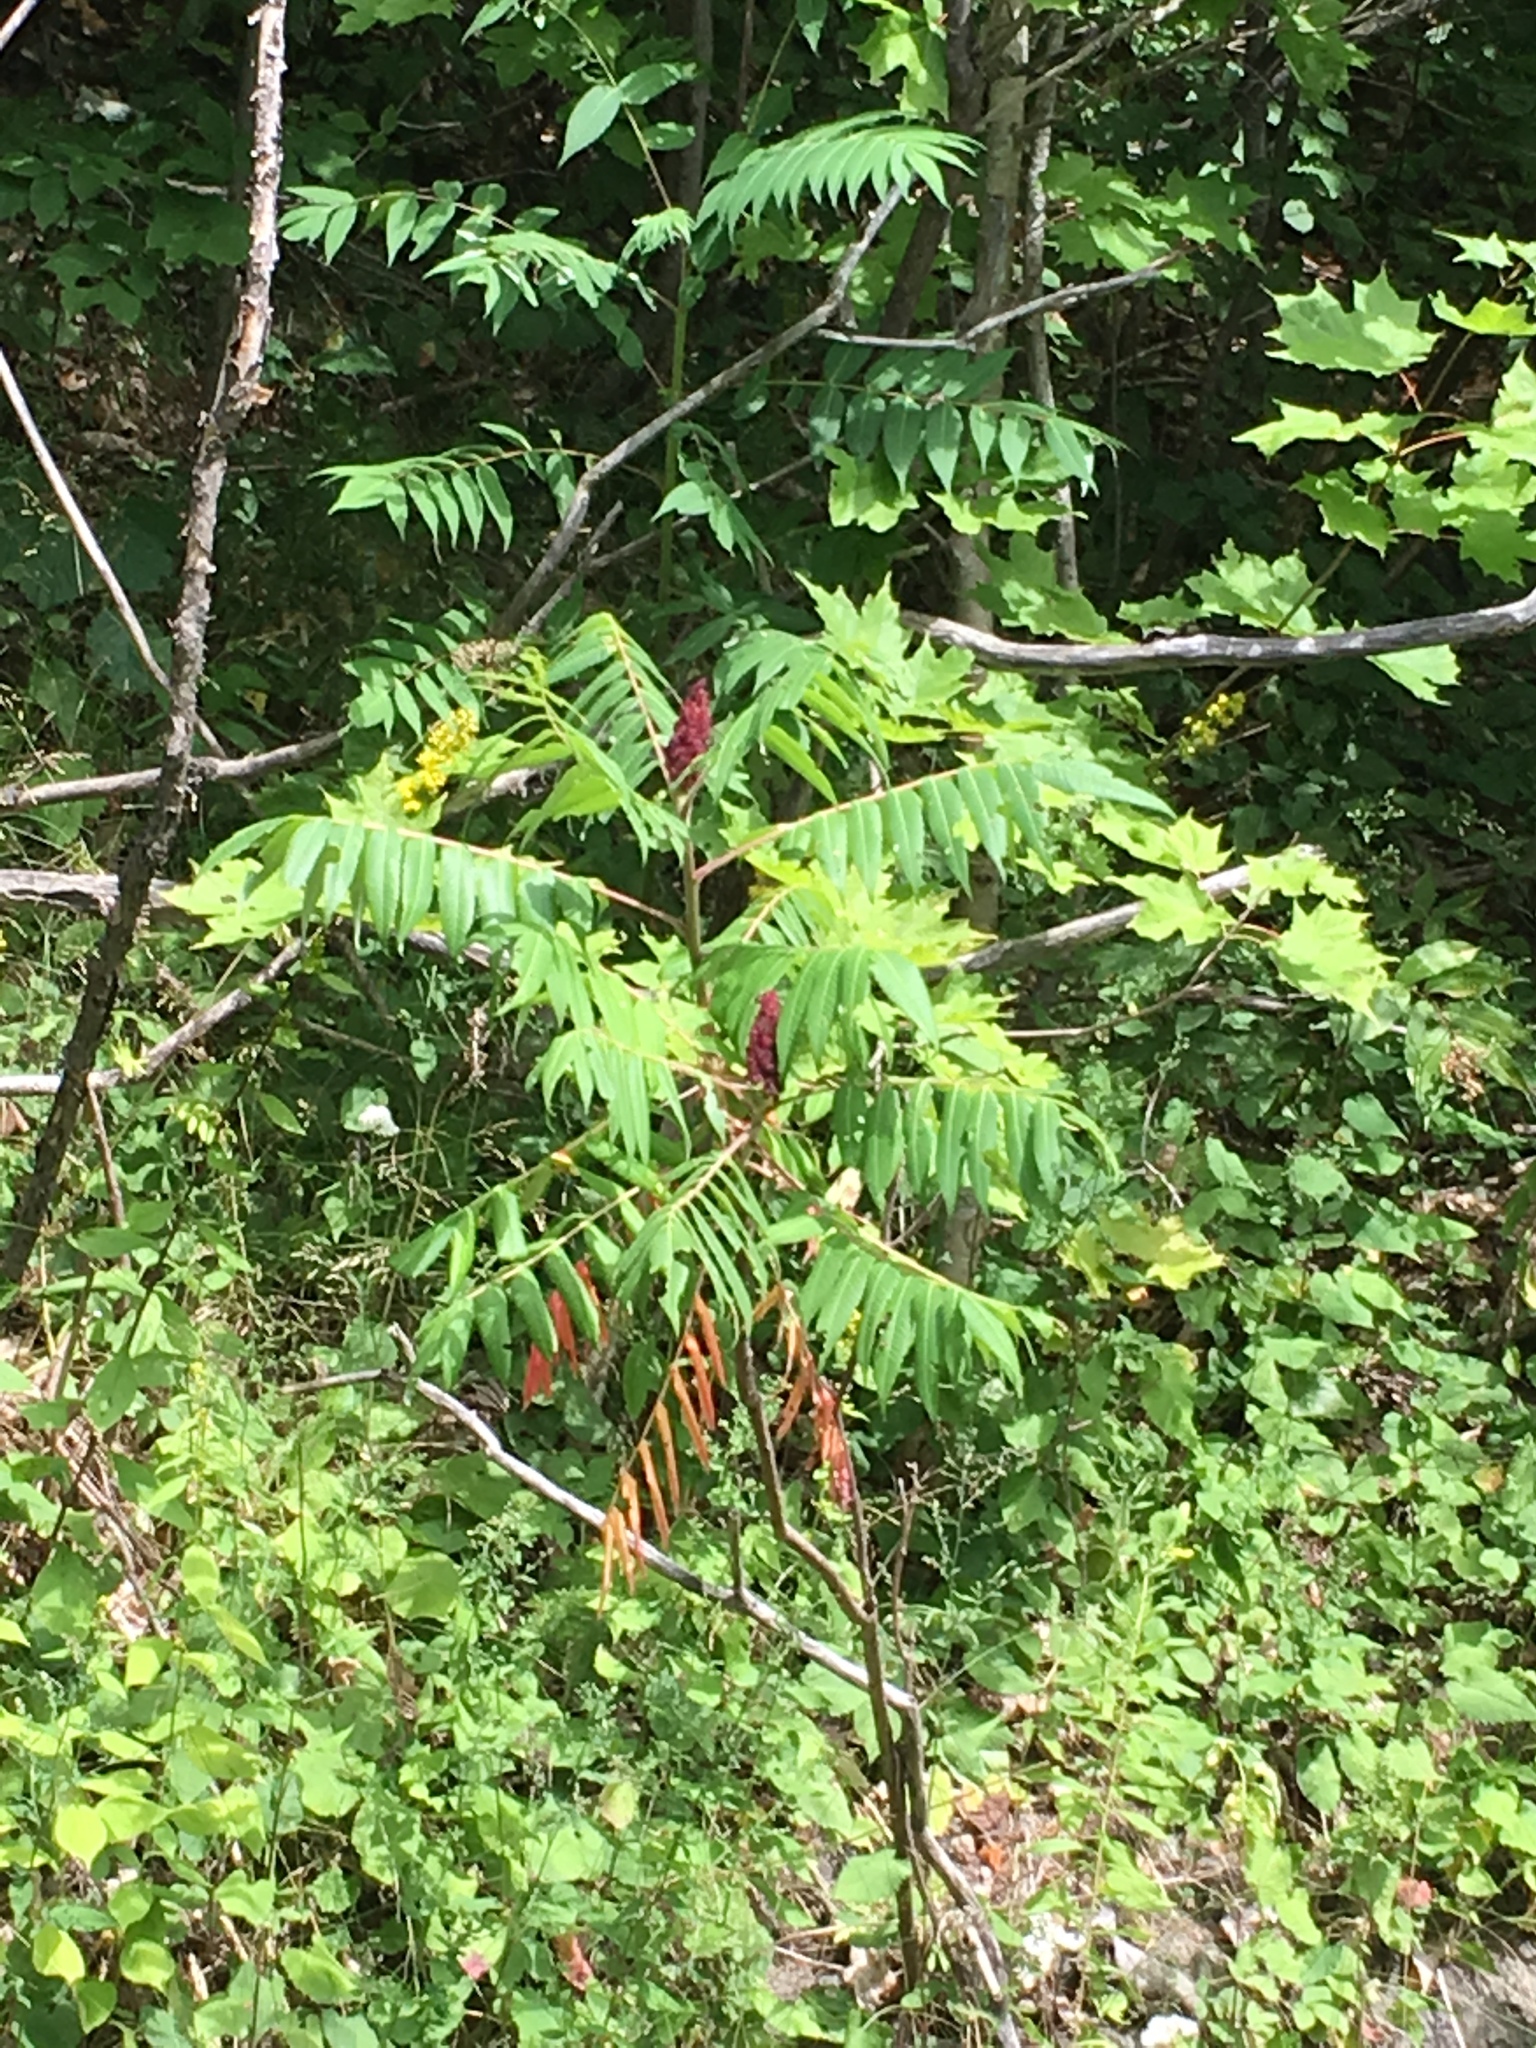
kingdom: Plantae
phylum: Tracheophyta
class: Magnoliopsida
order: Sapindales
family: Anacardiaceae
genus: Rhus
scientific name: Rhus typhina
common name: Staghorn sumac
